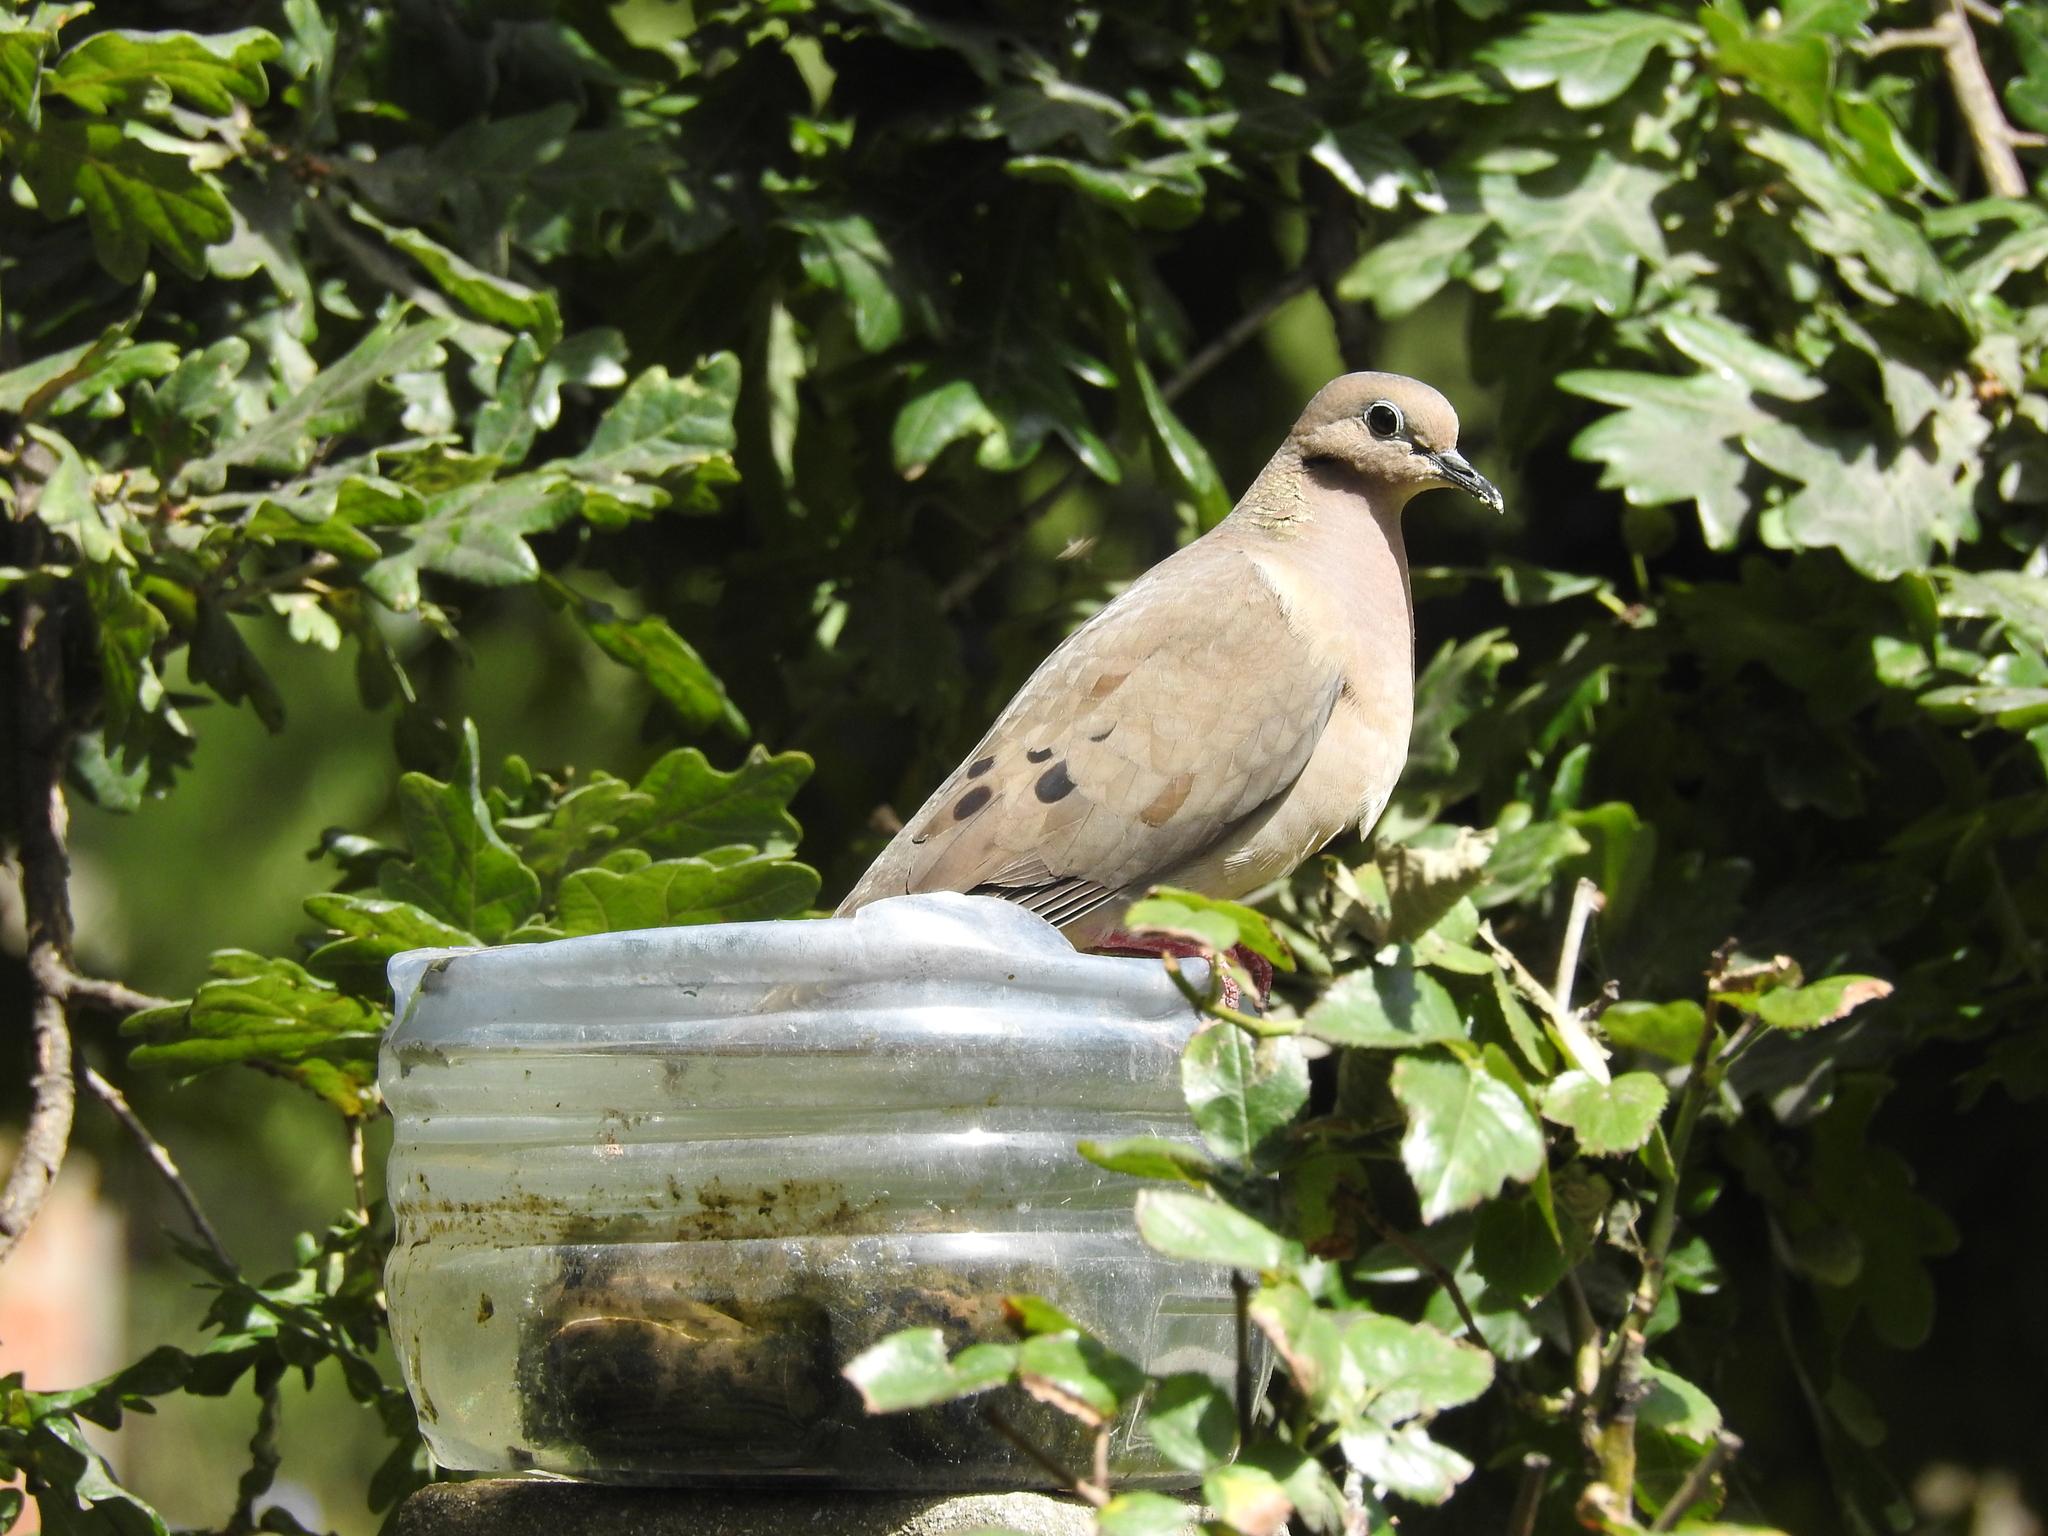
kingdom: Animalia
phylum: Chordata
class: Aves
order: Columbiformes
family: Columbidae
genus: Zenaida
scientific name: Zenaida auriculata
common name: Eared dove
